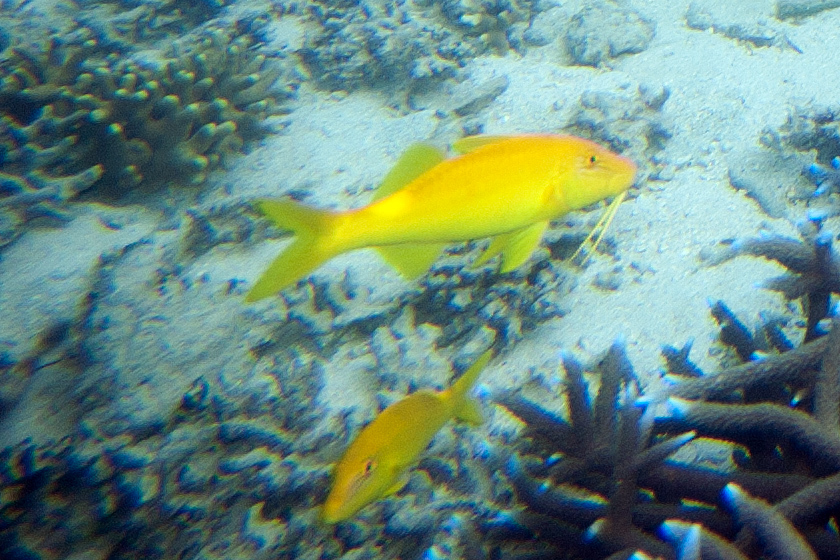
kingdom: Animalia
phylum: Chordata
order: Perciformes
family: Mullidae
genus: Parupeneus
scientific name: Parupeneus cyclostomus
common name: Goldsaddle goatfish
